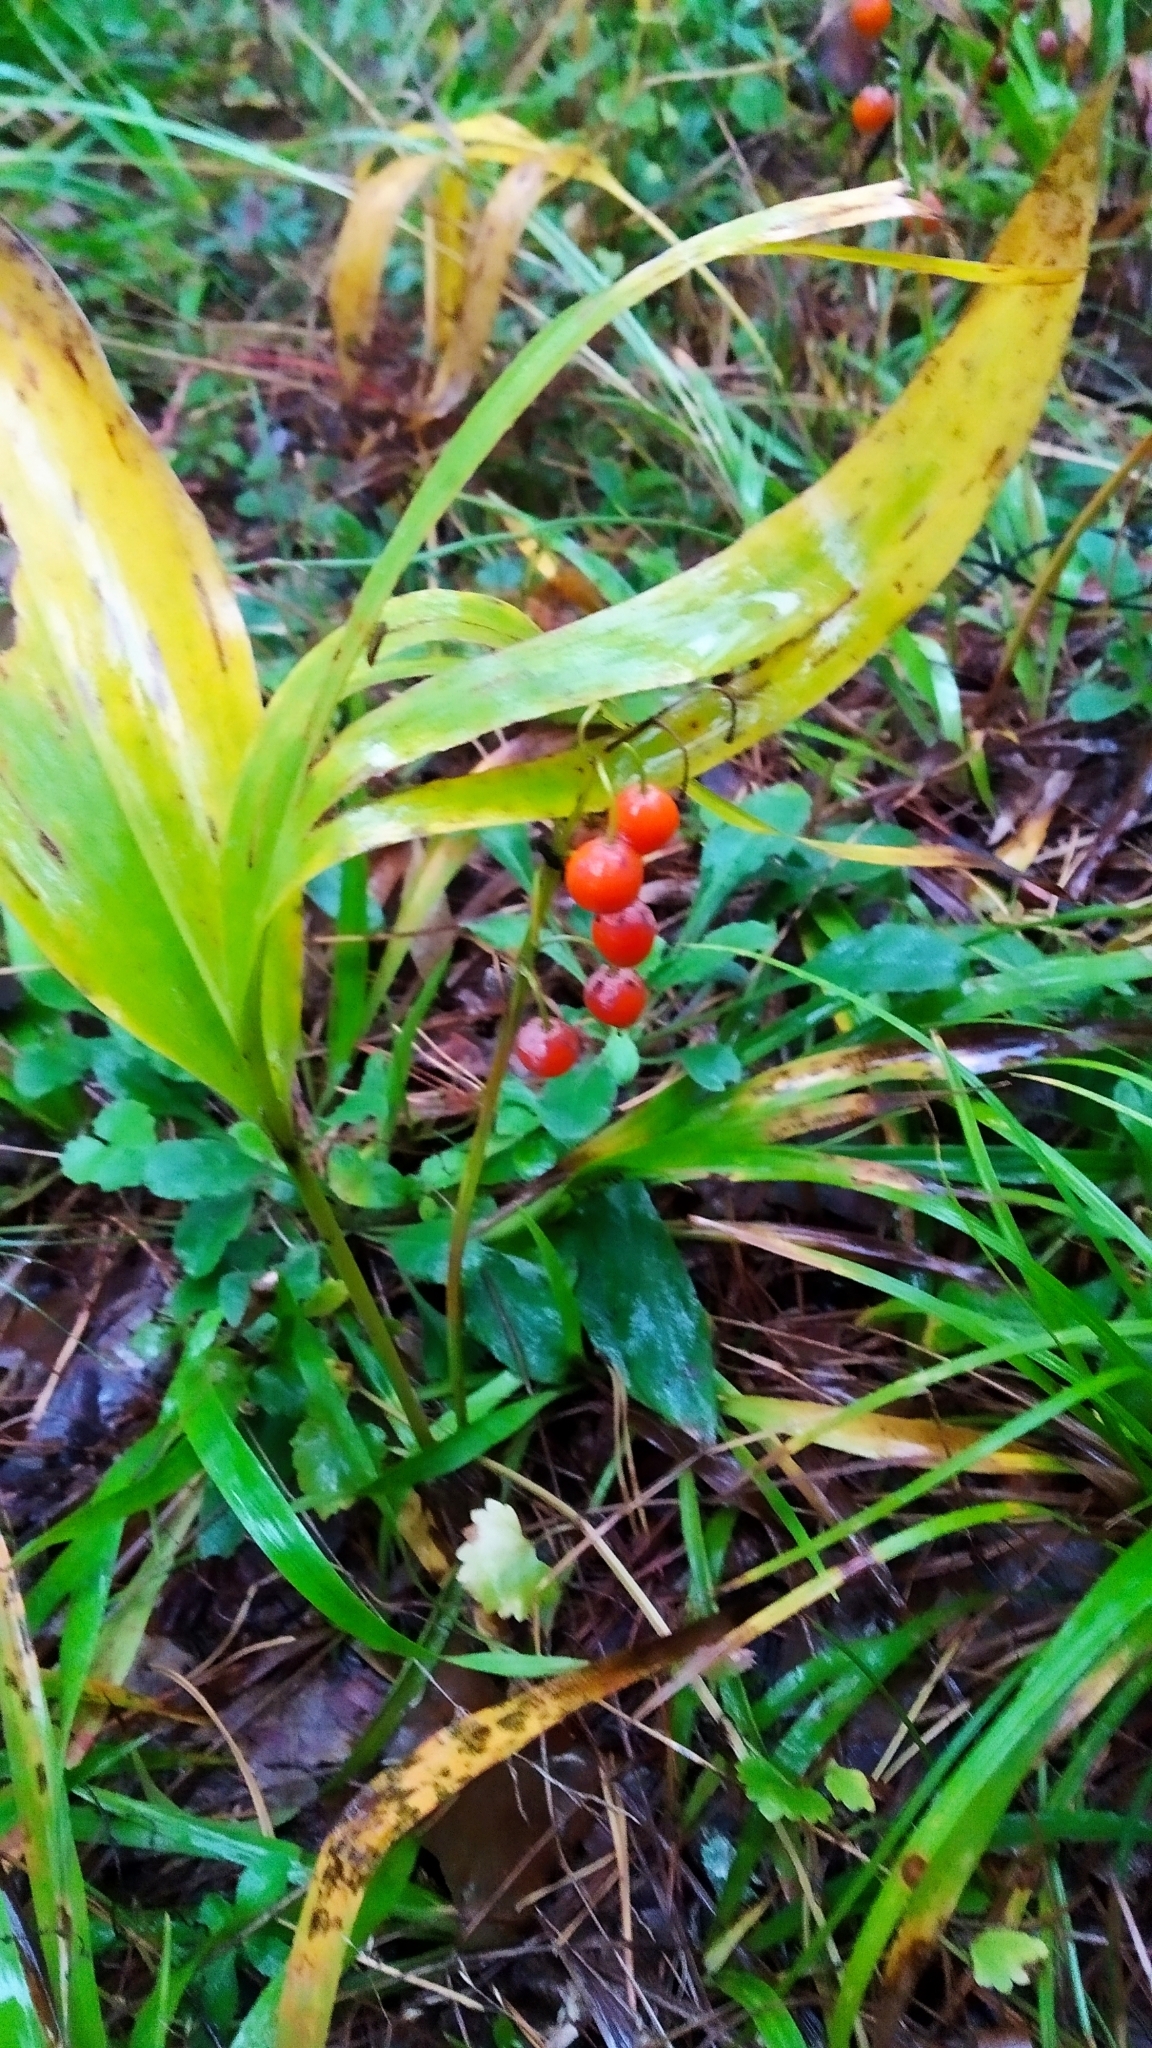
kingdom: Plantae
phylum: Tracheophyta
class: Liliopsida
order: Asparagales
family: Asparagaceae
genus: Convallaria
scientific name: Convallaria majalis
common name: Lily-of-the-valley
